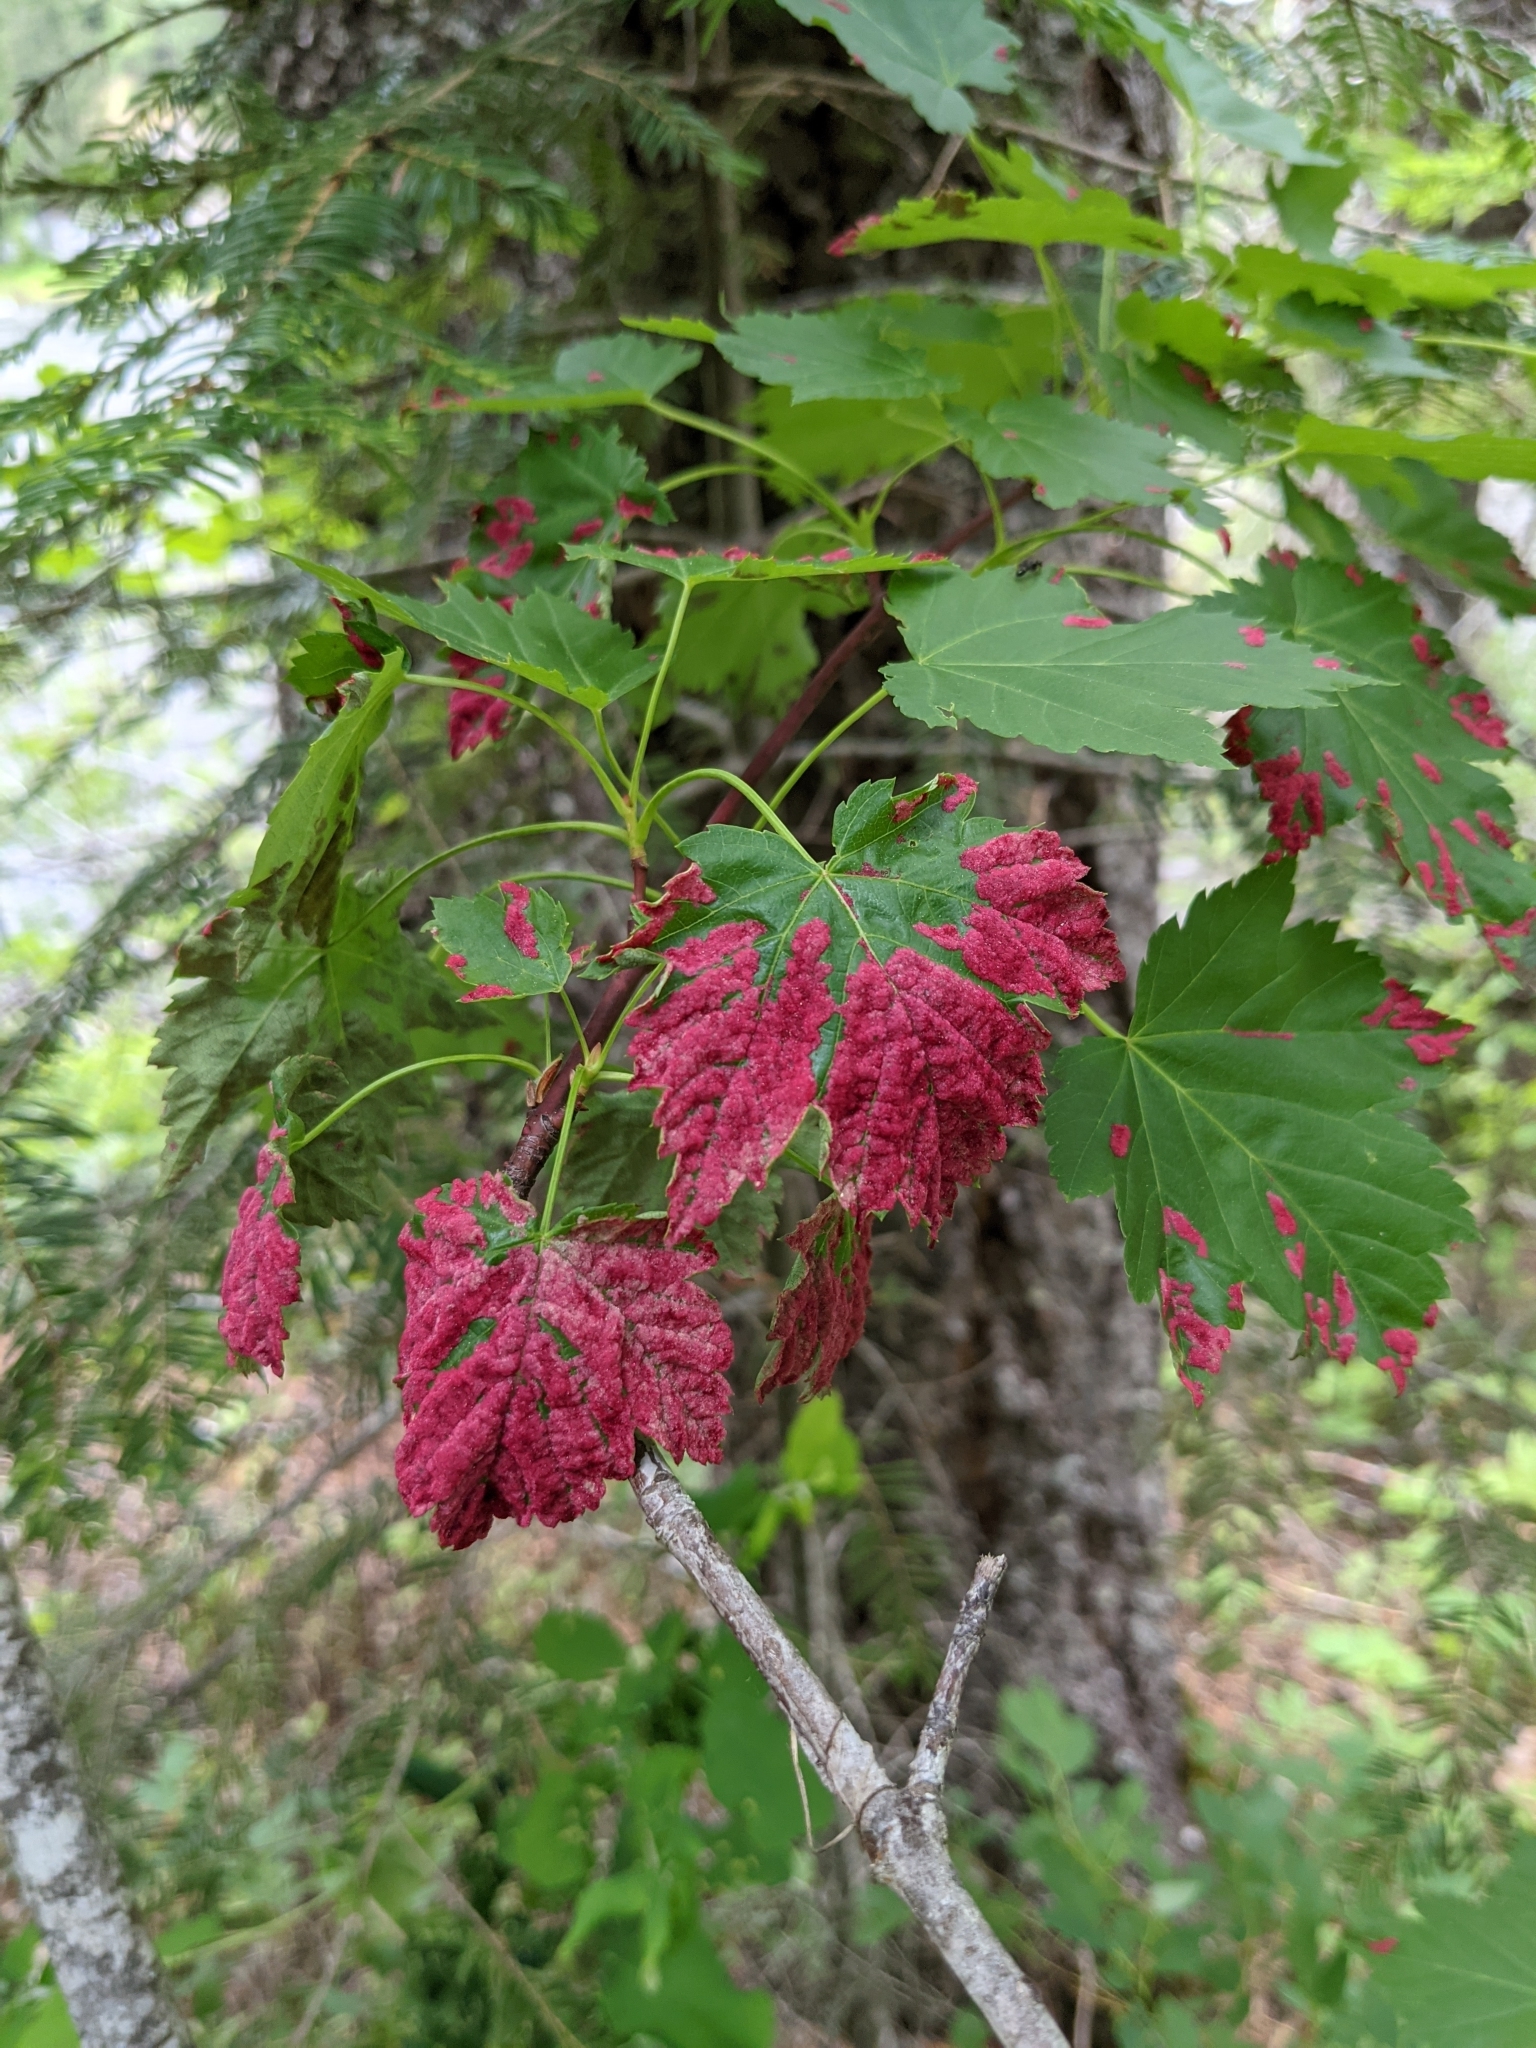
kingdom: Animalia
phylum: Arthropoda
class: Arachnida
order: Trombidiformes
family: Eriophyidae
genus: Aceria
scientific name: Aceria
